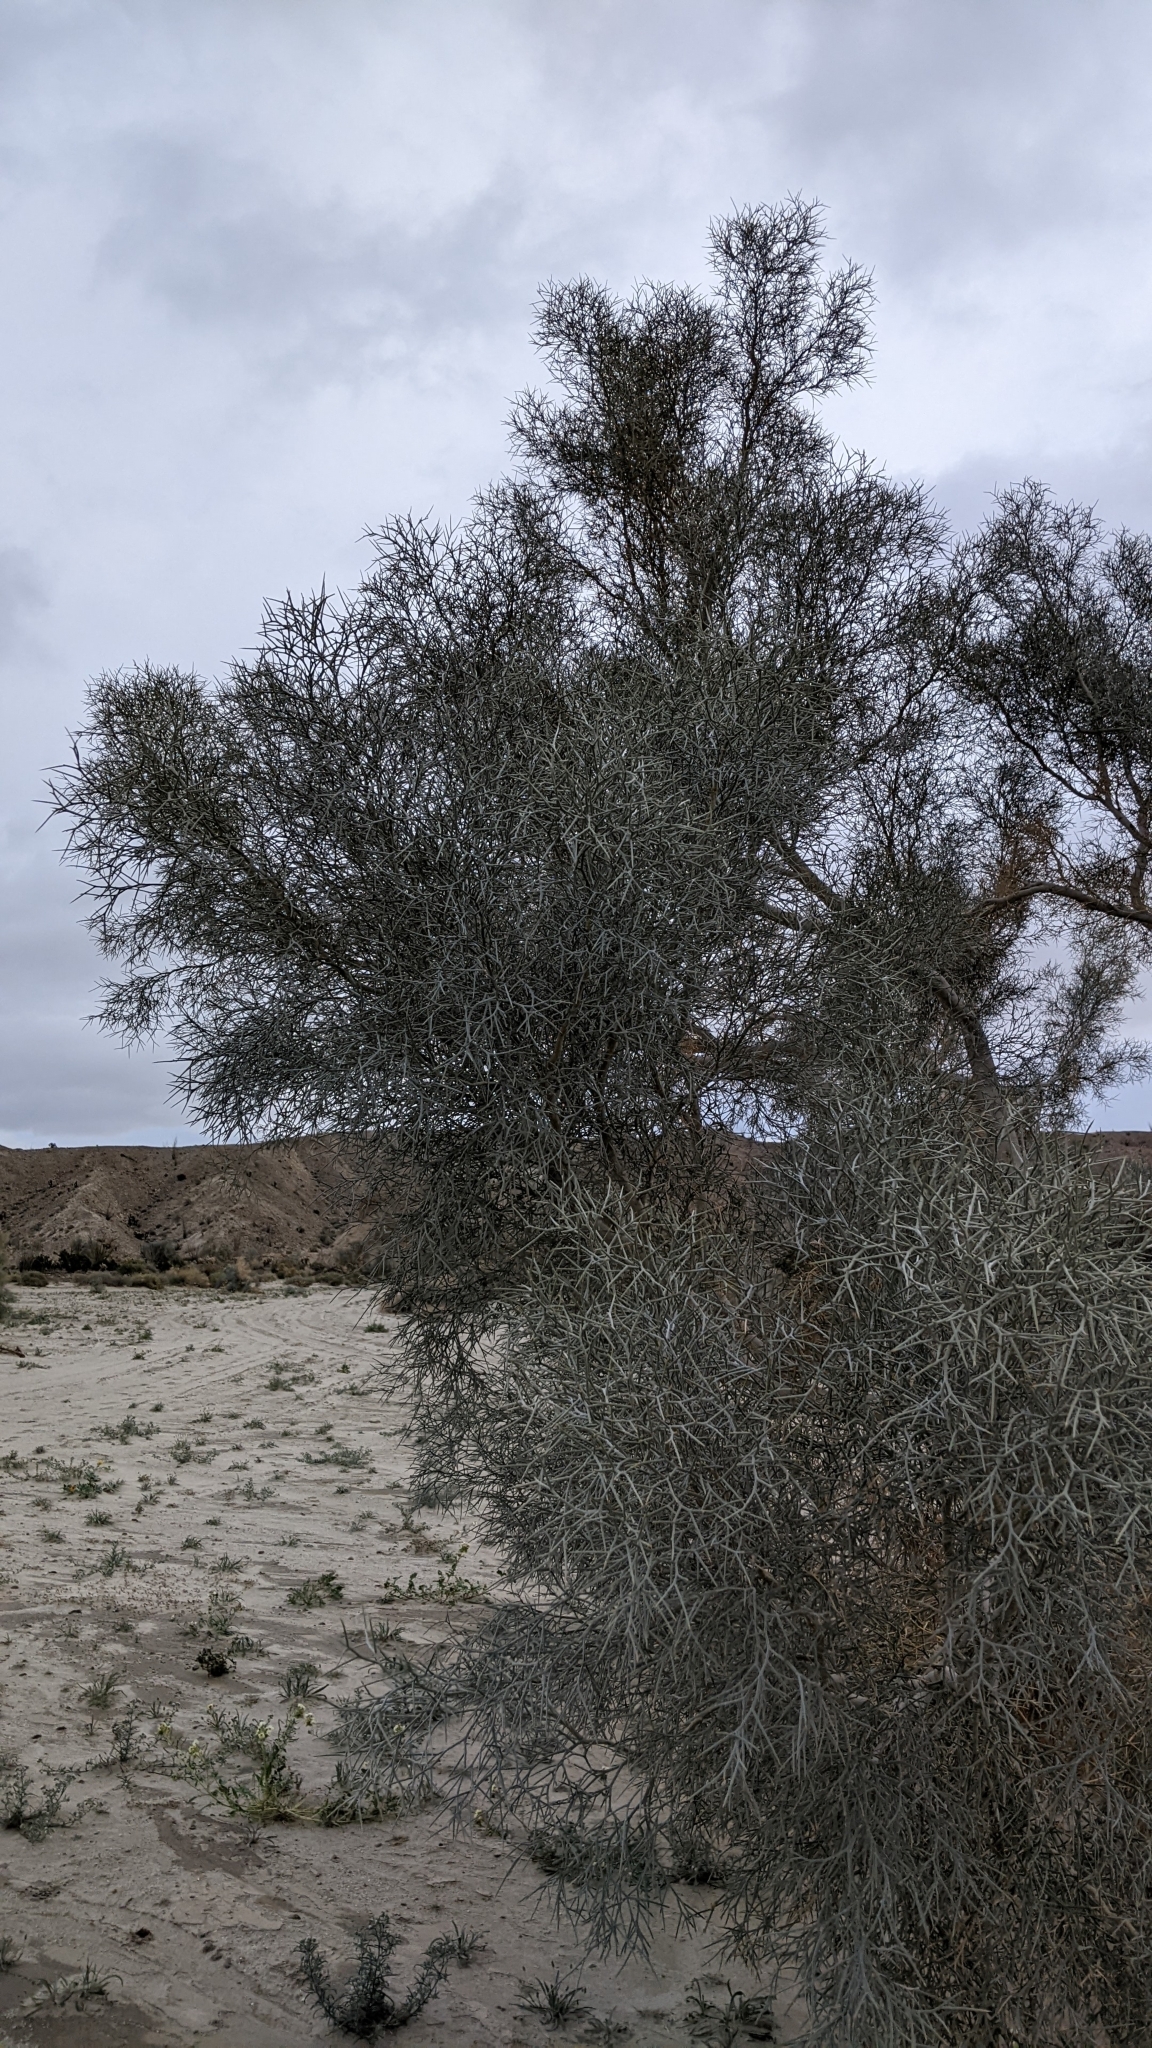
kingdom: Plantae
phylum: Tracheophyta
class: Magnoliopsida
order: Fabales
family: Fabaceae
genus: Psorothamnus
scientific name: Psorothamnus spinosus
